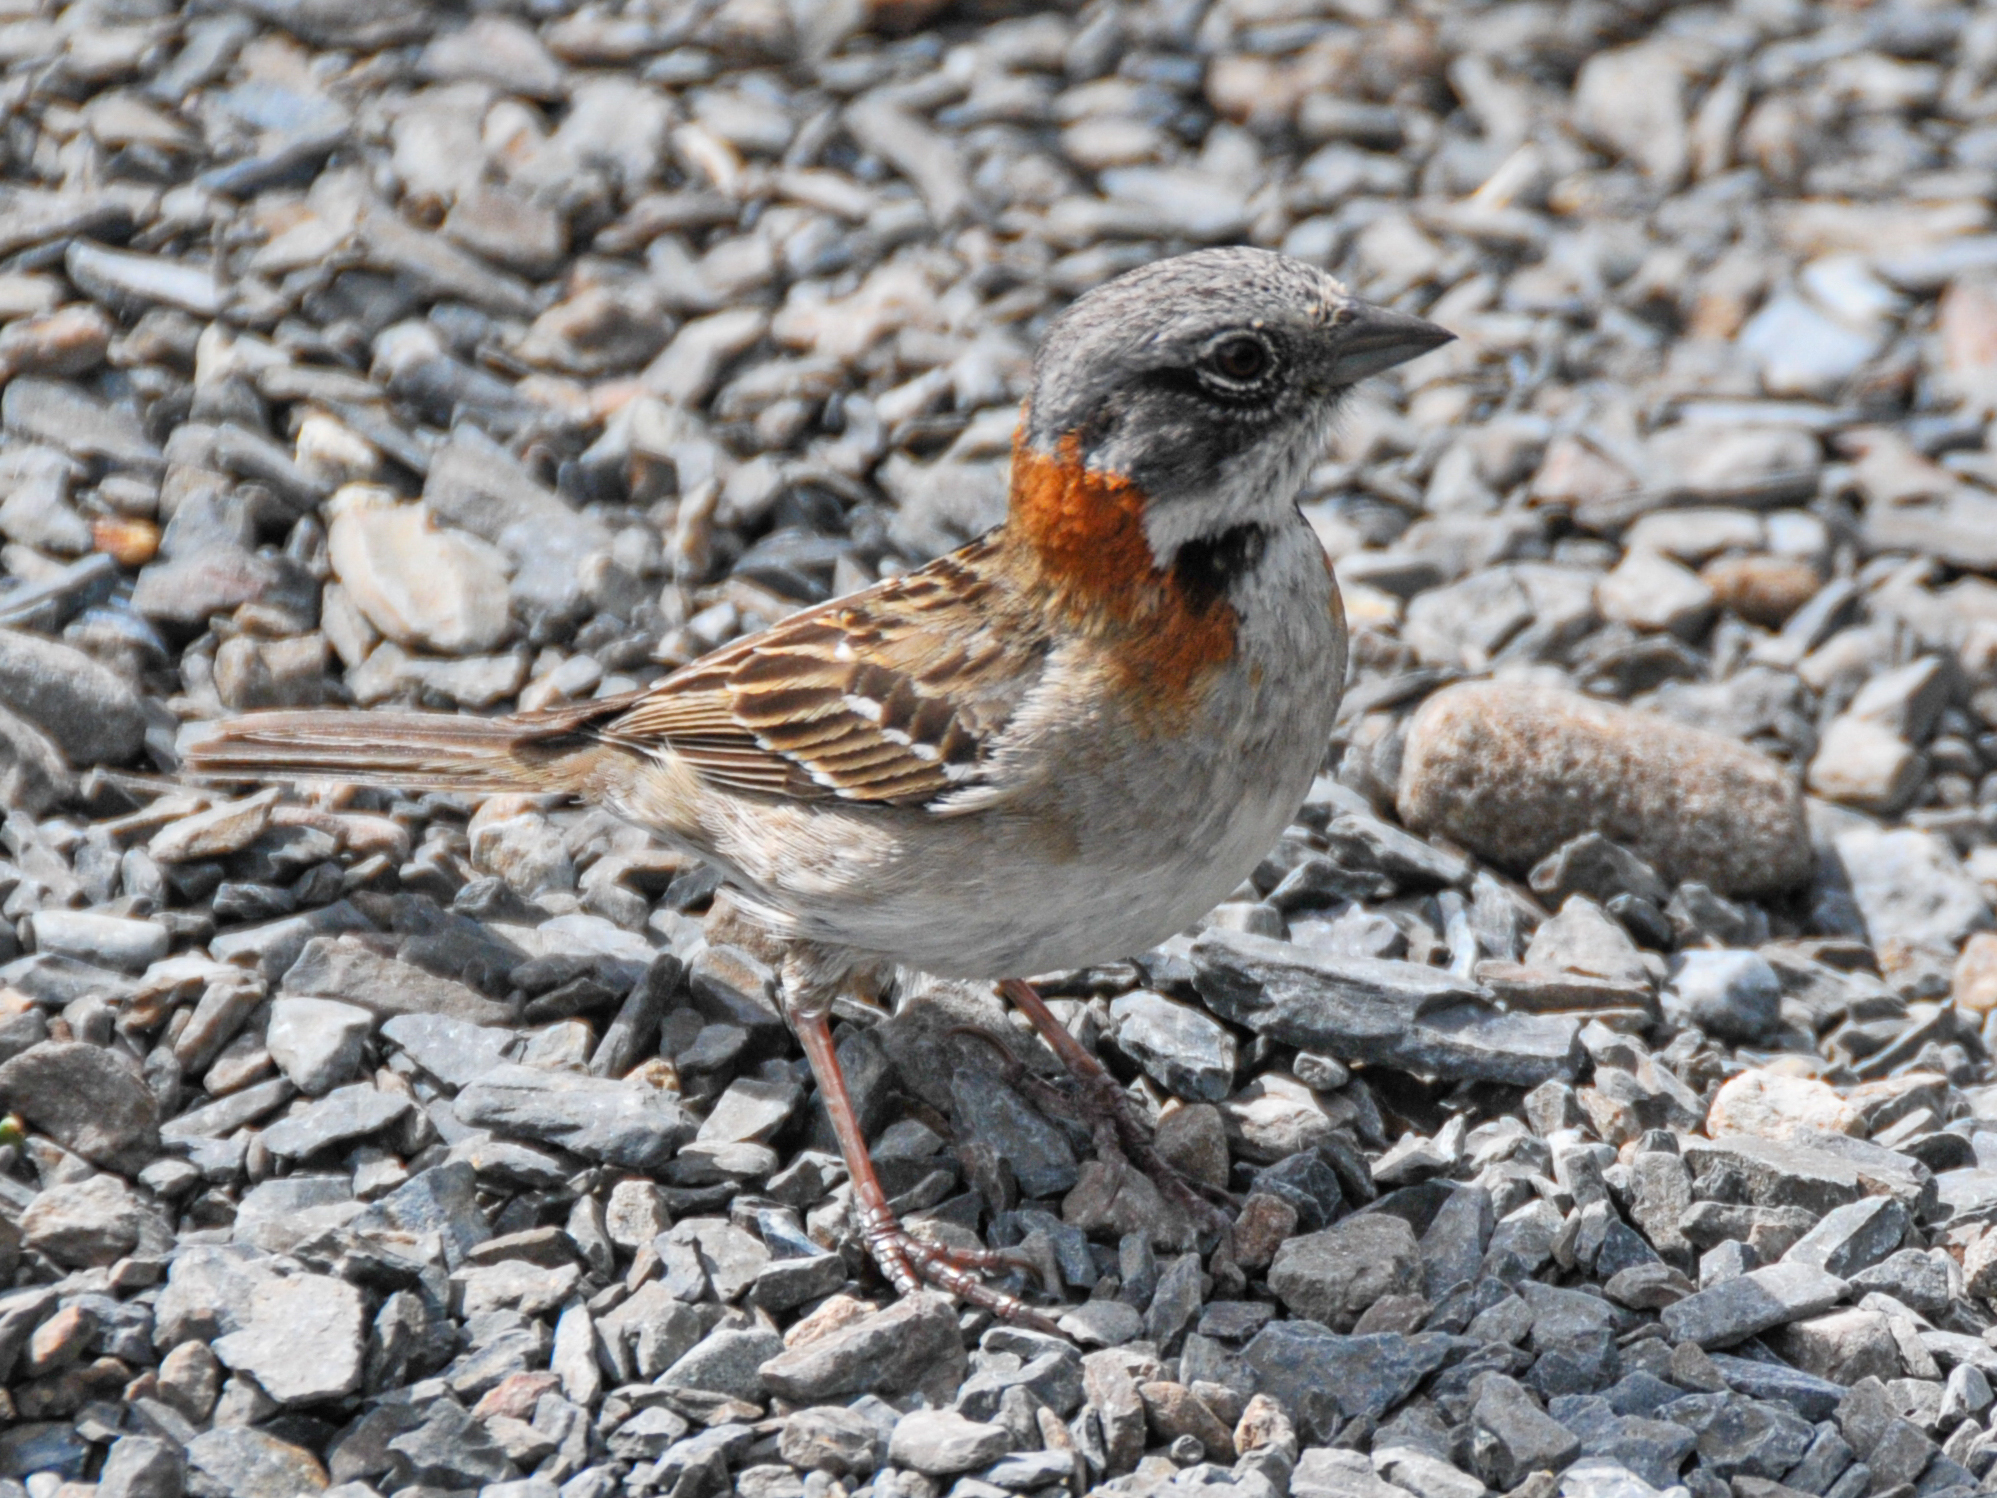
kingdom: Animalia
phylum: Chordata
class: Aves
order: Passeriformes
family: Passerellidae
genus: Zonotrichia
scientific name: Zonotrichia capensis
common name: Rufous-collared sparrow
